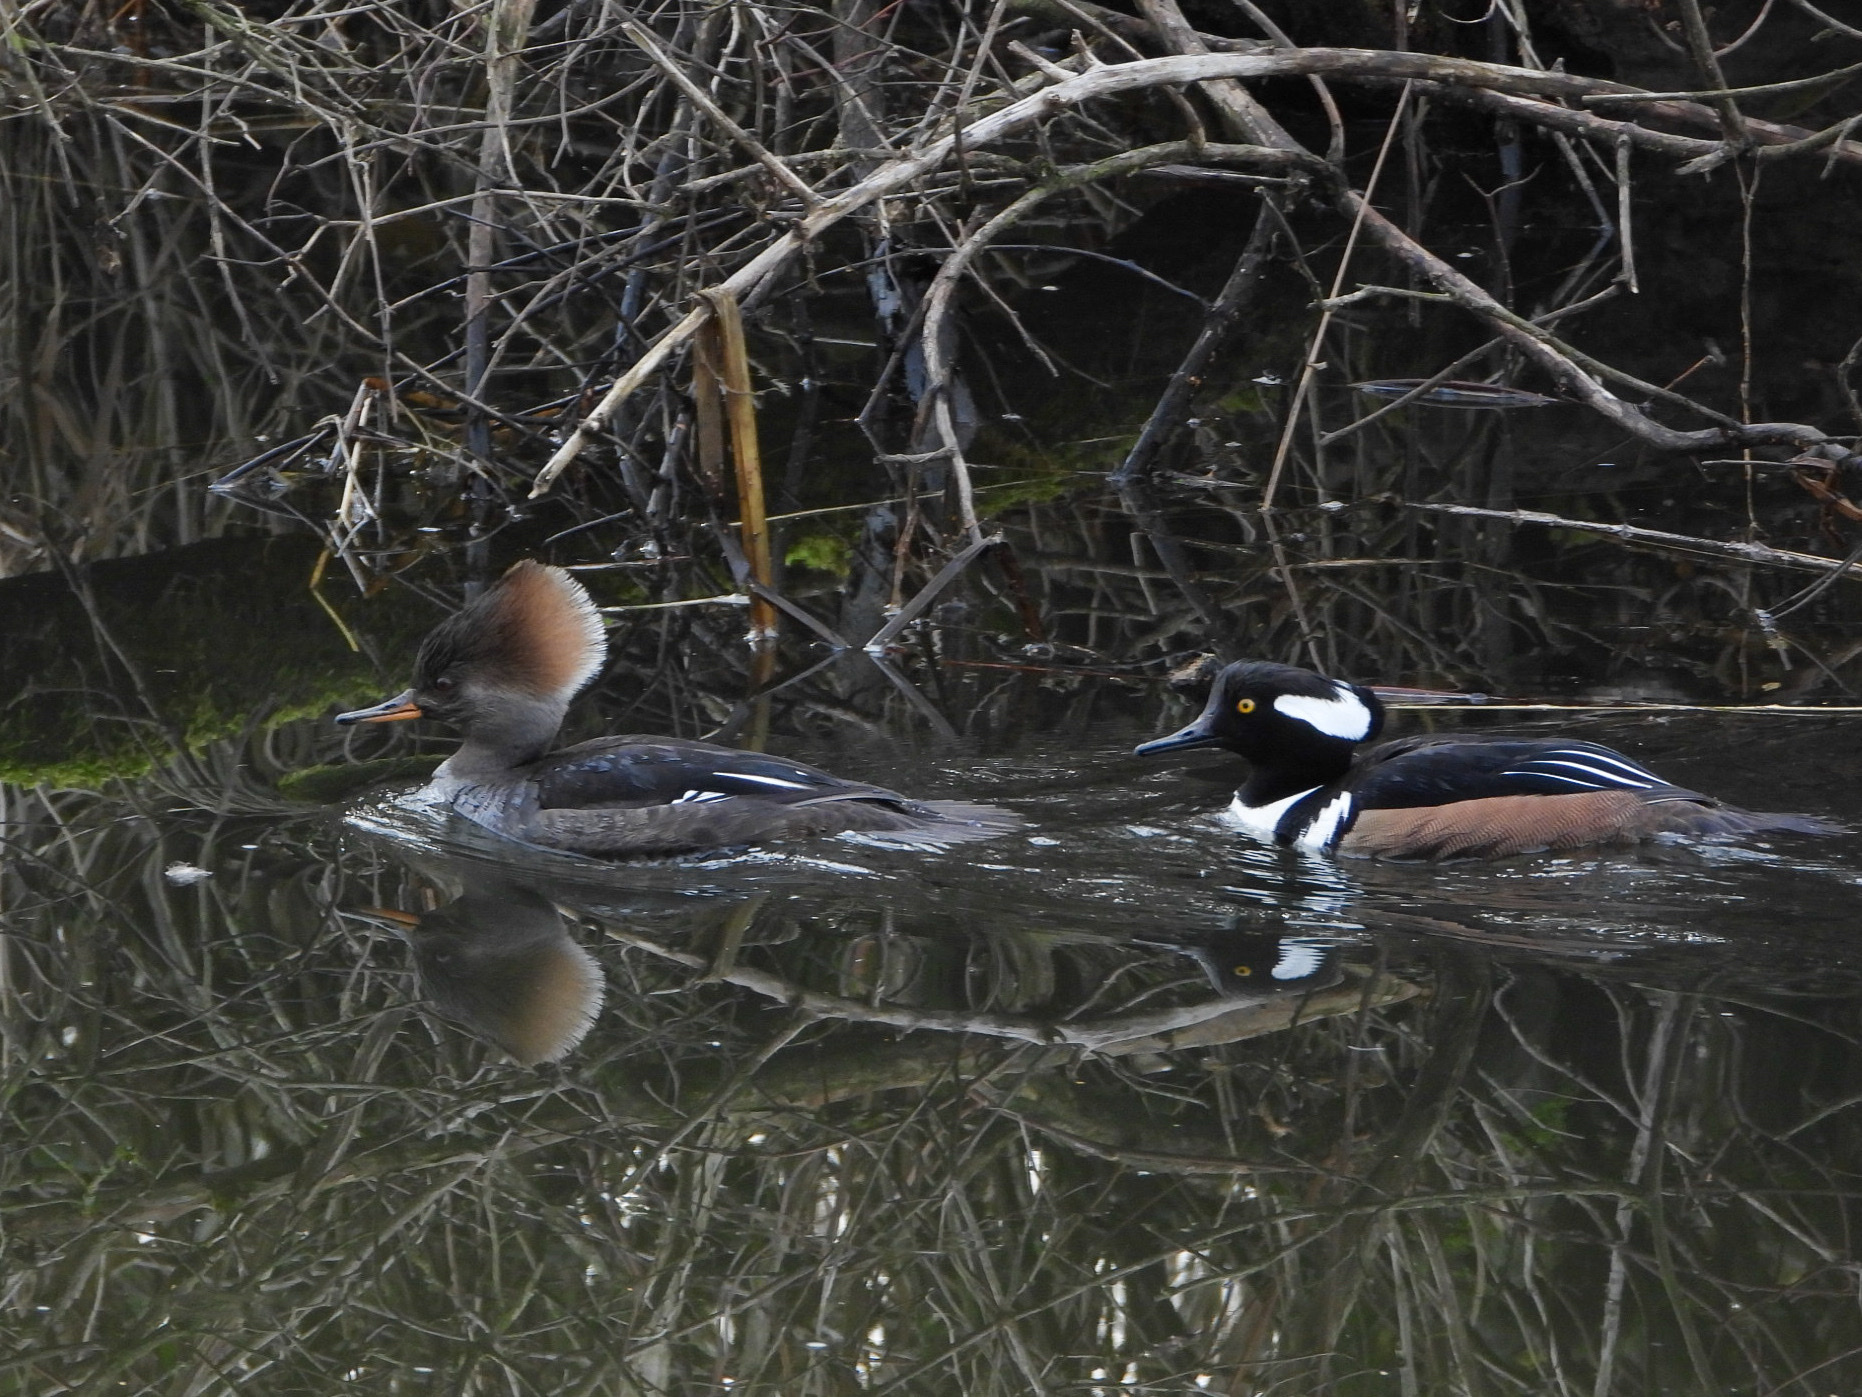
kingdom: Animalia
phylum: Chordata
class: Aves
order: Anseriformes
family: Anatidae
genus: Lophodytes
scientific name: Lophodytes cucullatus
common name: Hooded merganser
